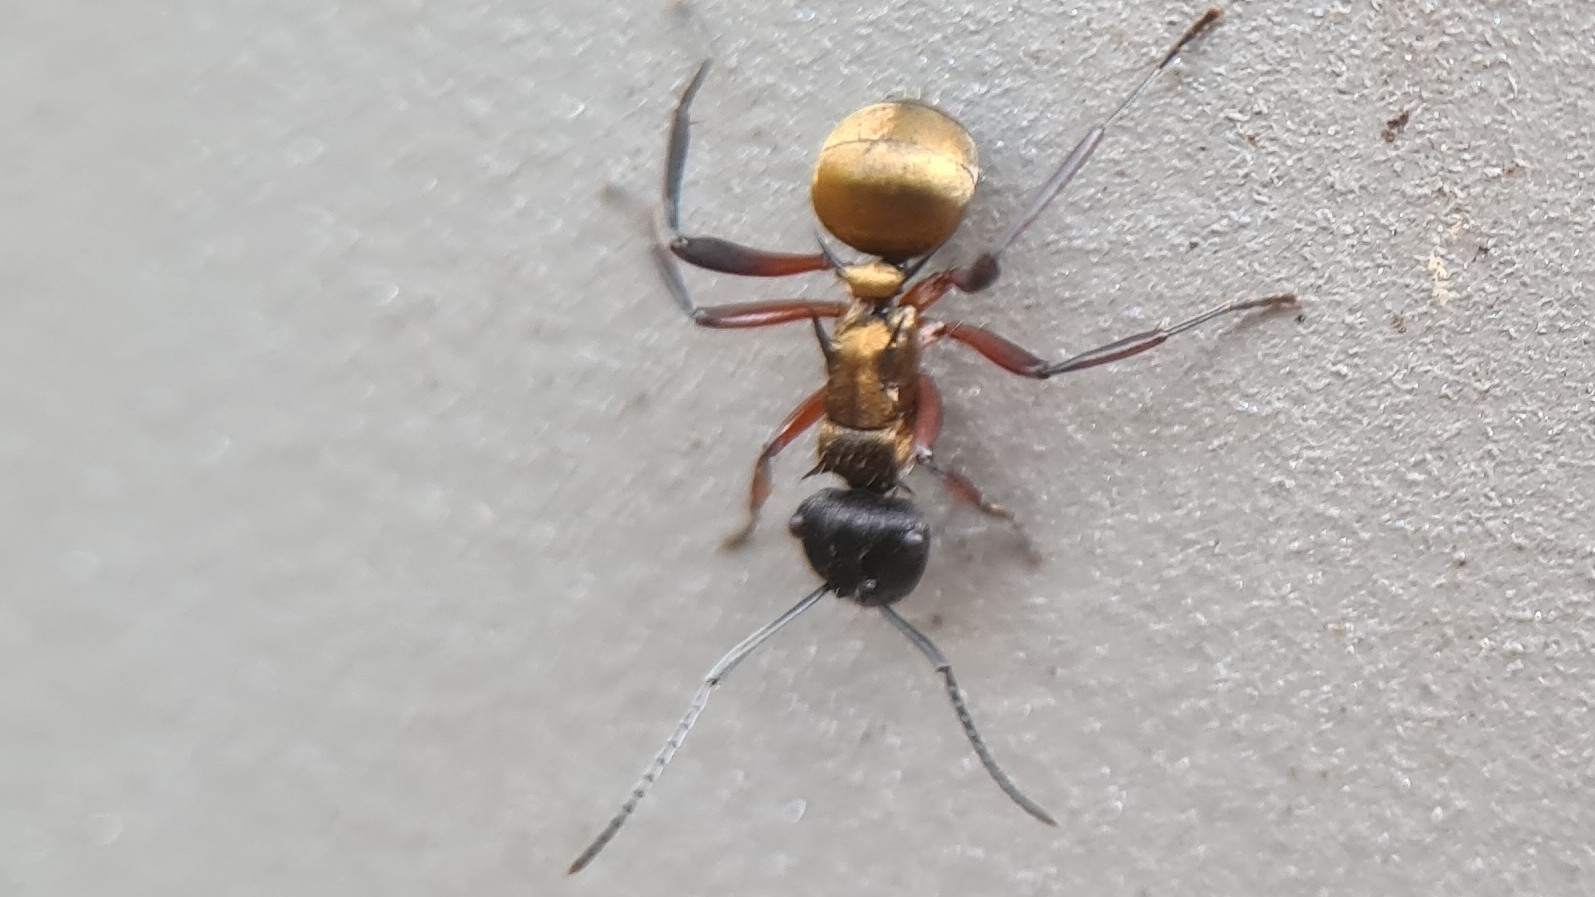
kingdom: Animalia
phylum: Arthropoda
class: Insecta
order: Hymenoptera
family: Formicidae
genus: Polyrhachis
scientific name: Polyrhachis rufifemur
